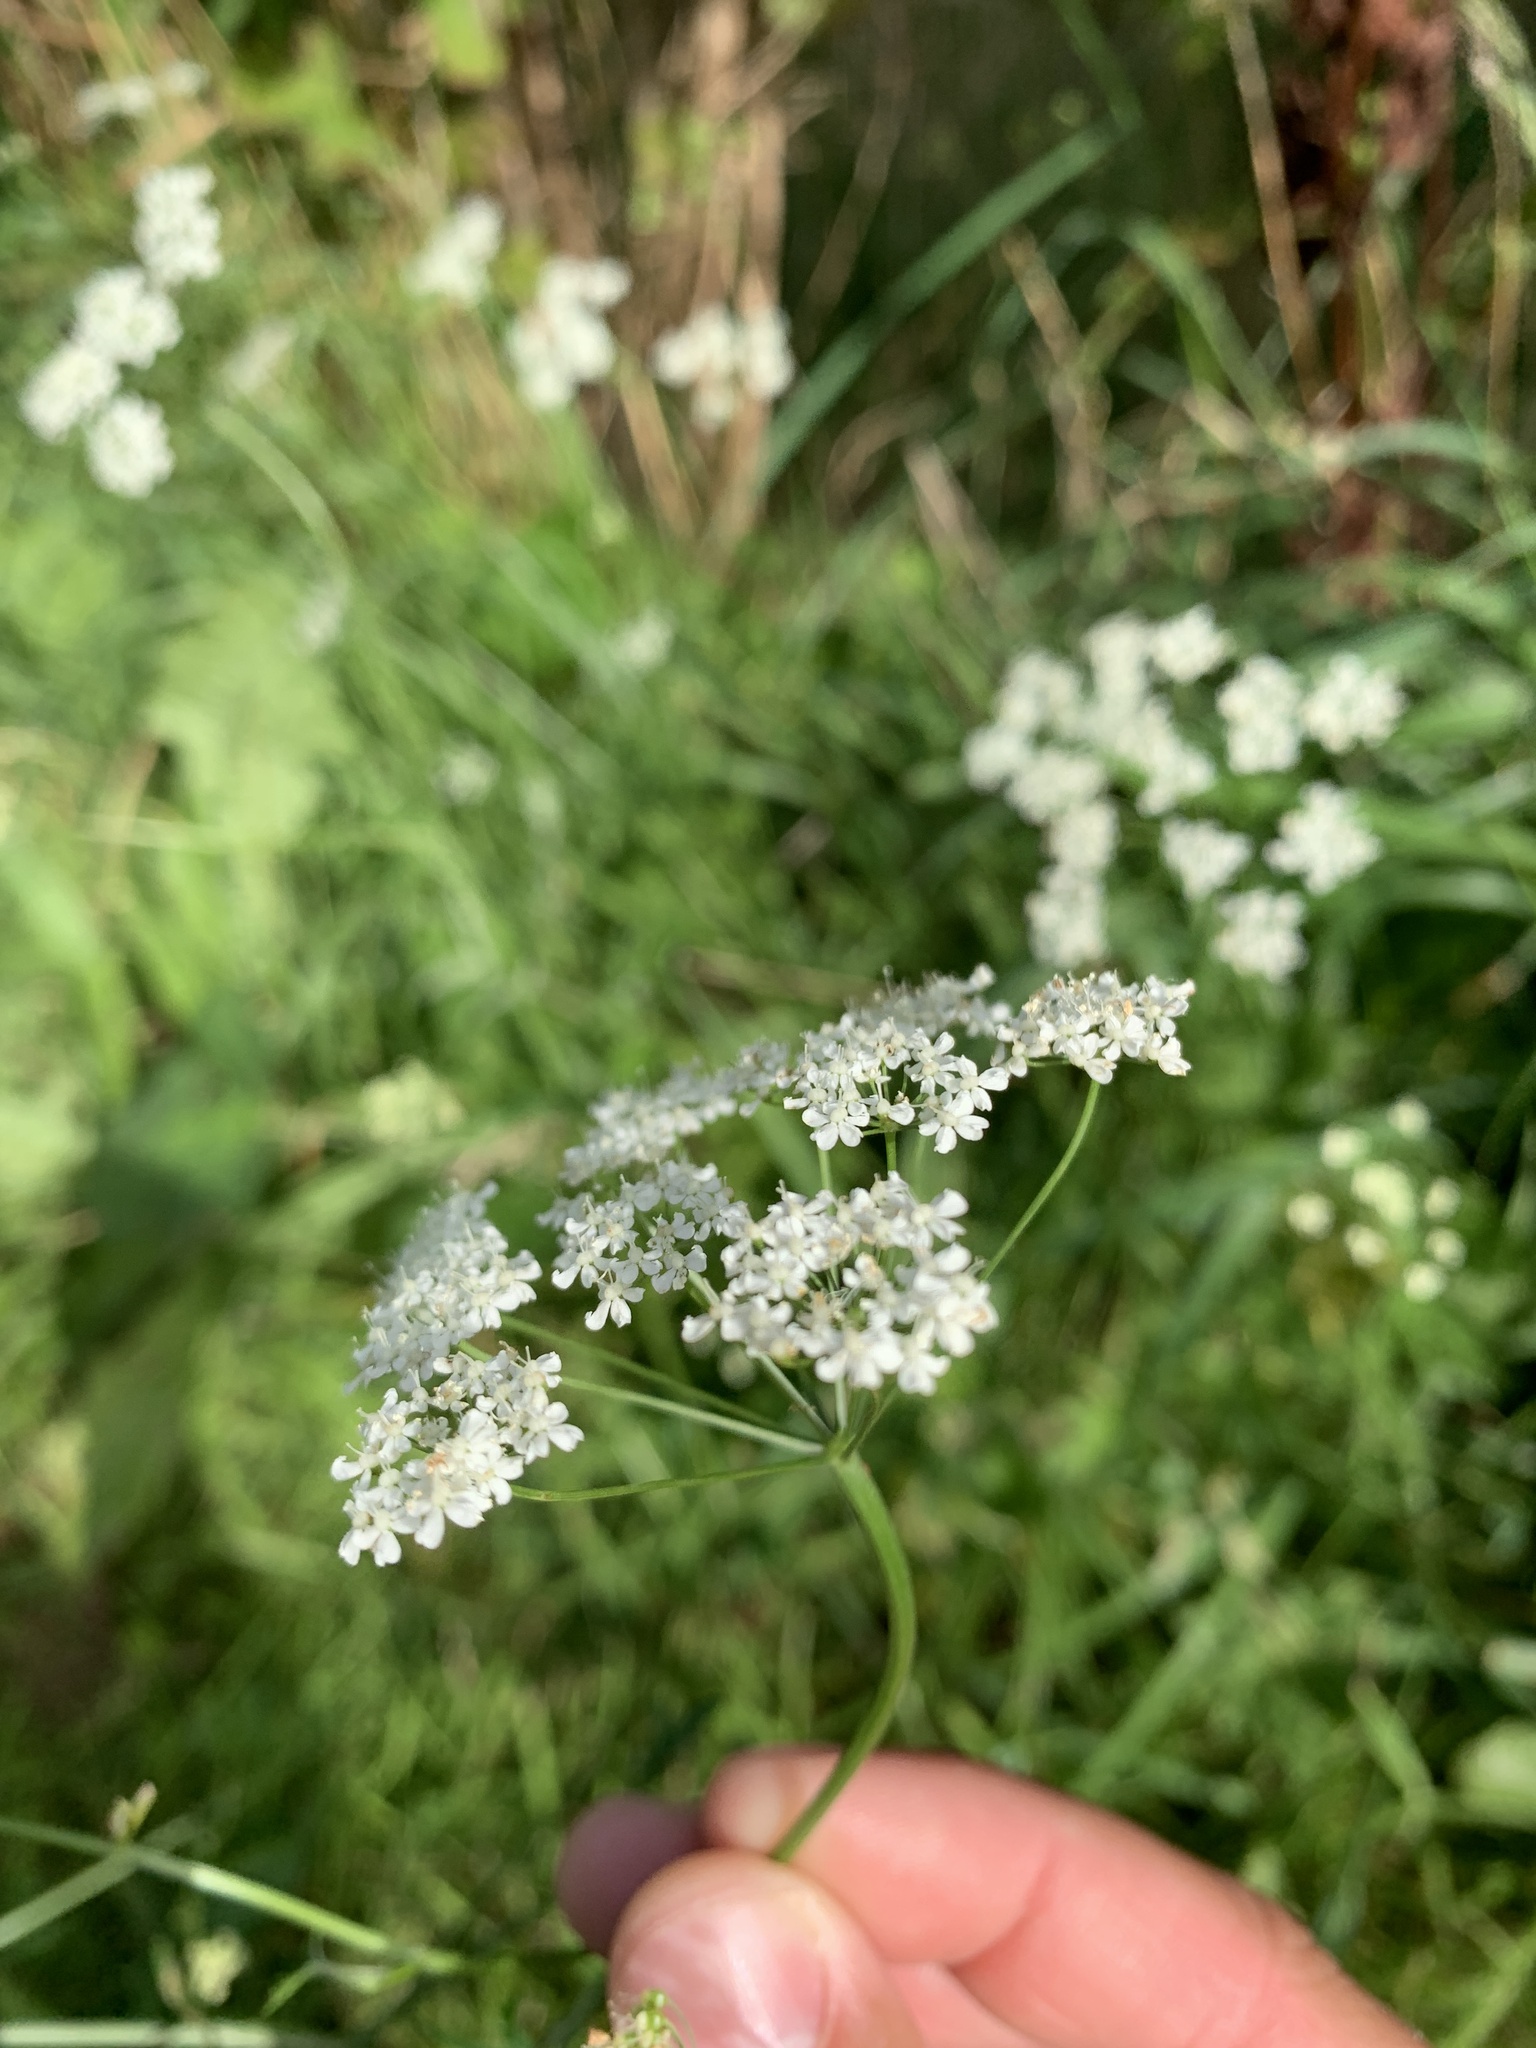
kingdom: Plantae
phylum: Tracheophyta
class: Magnoliopsida
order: Apiales
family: Apiaceae
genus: Conopodium
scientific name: Conopodium majus
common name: Pignut
